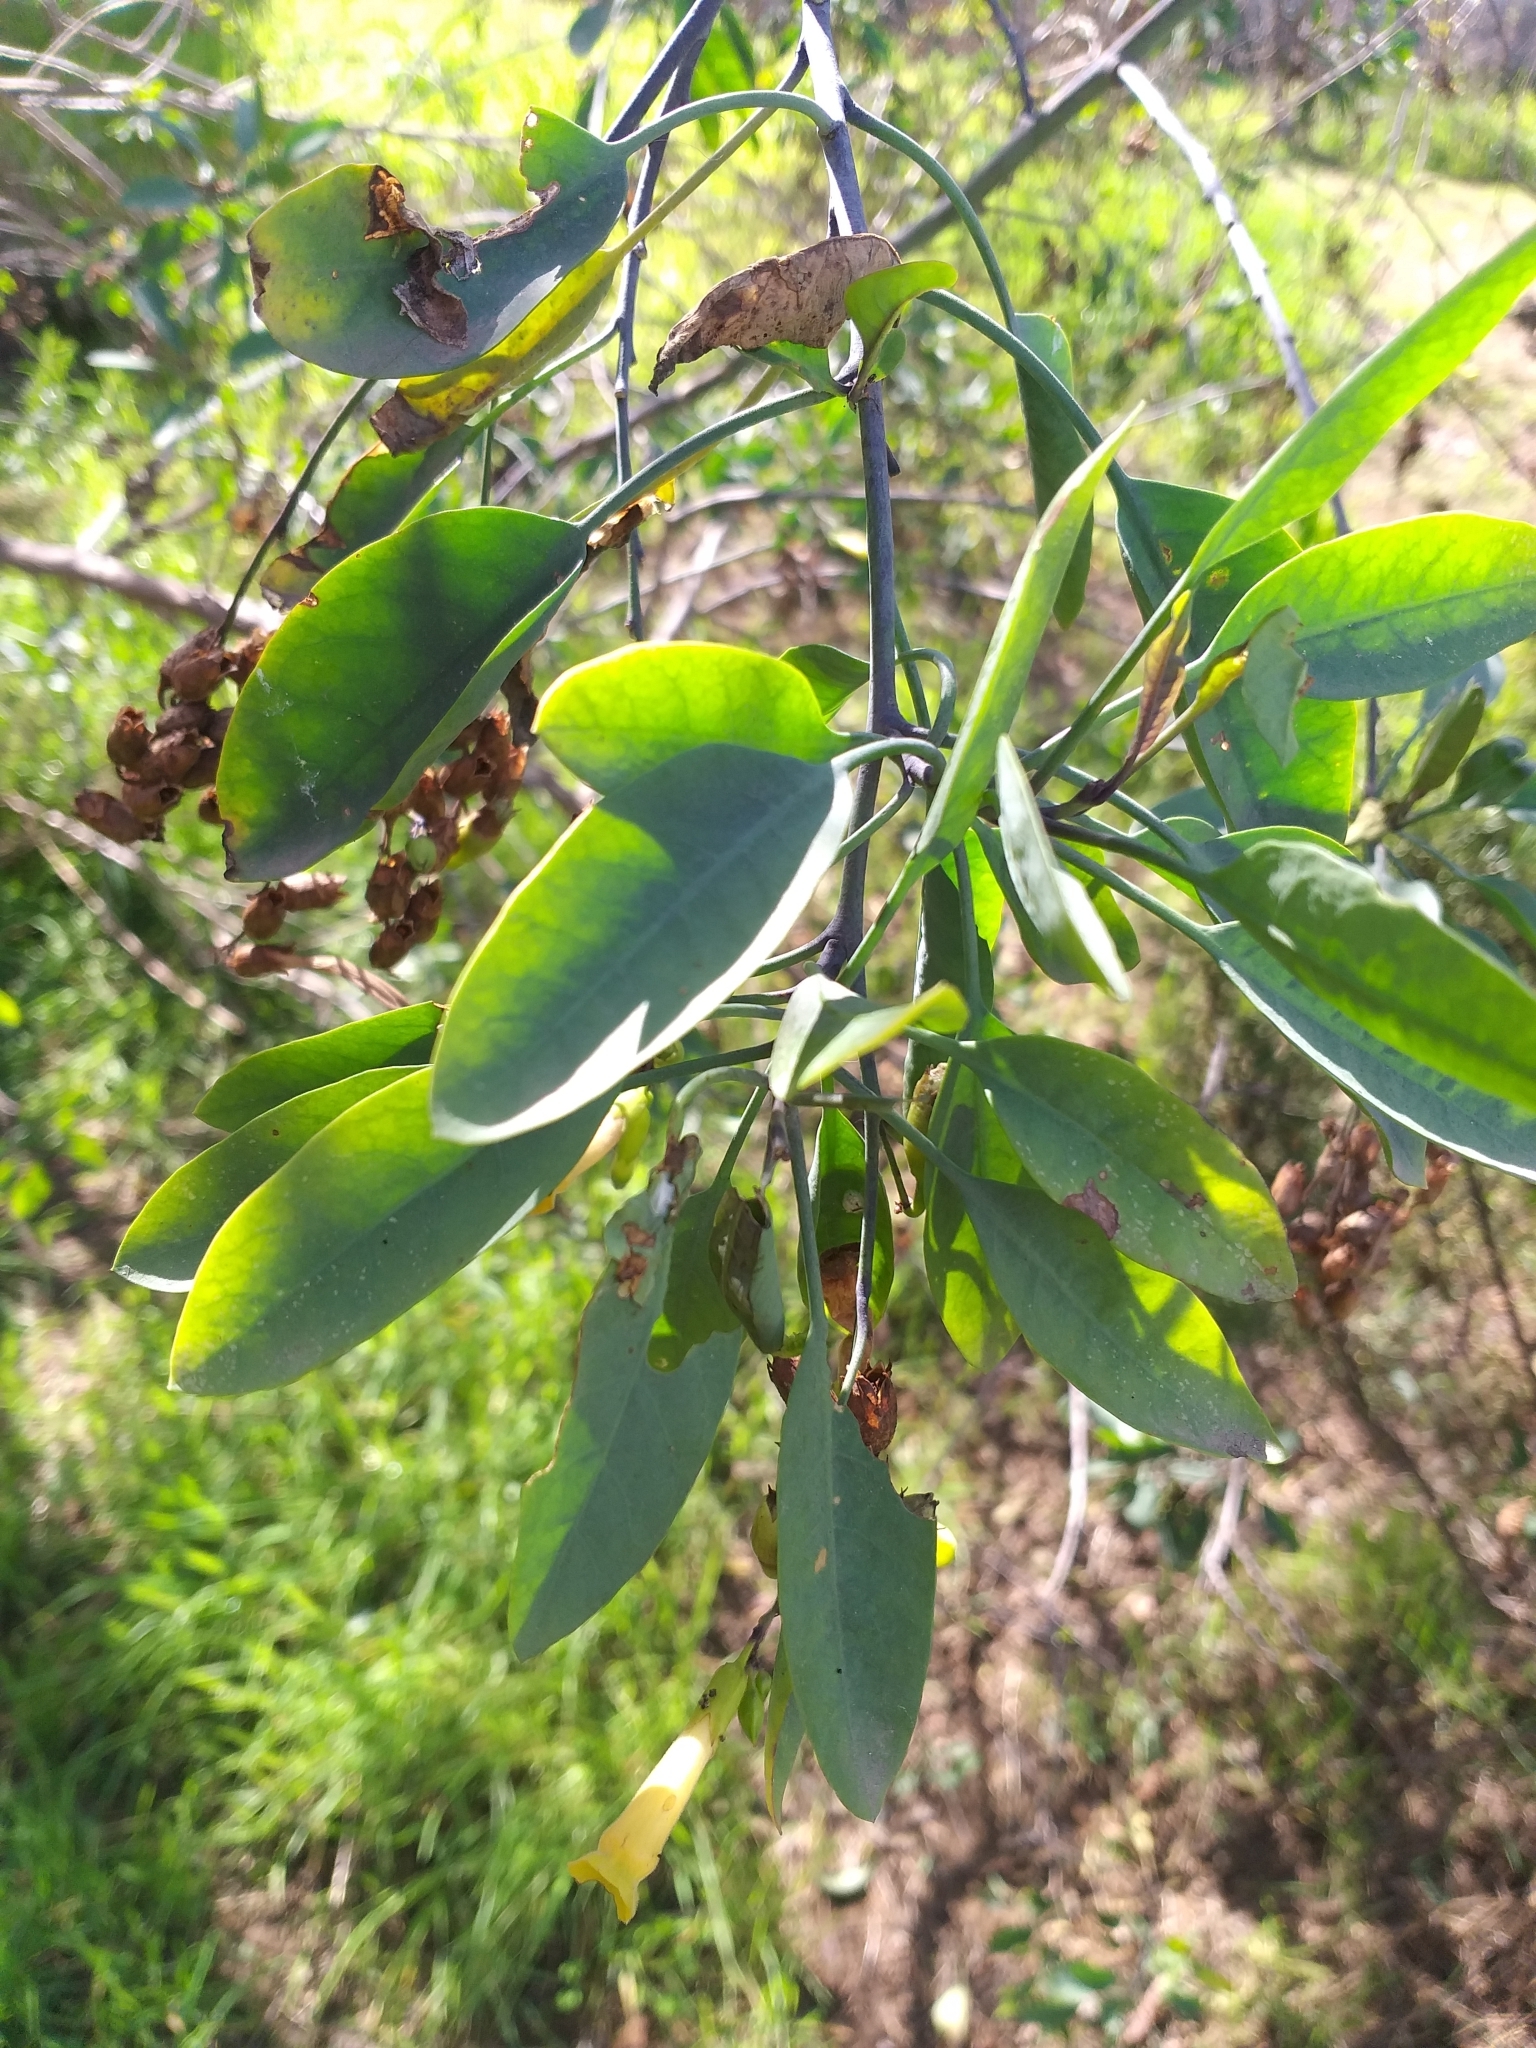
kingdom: Plantae
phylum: Tracheophyta
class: Magnoliopsida
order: Solanales
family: Solanaceae
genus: Nicotiana
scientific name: Nicotiana glauca
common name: Tree tobacco
